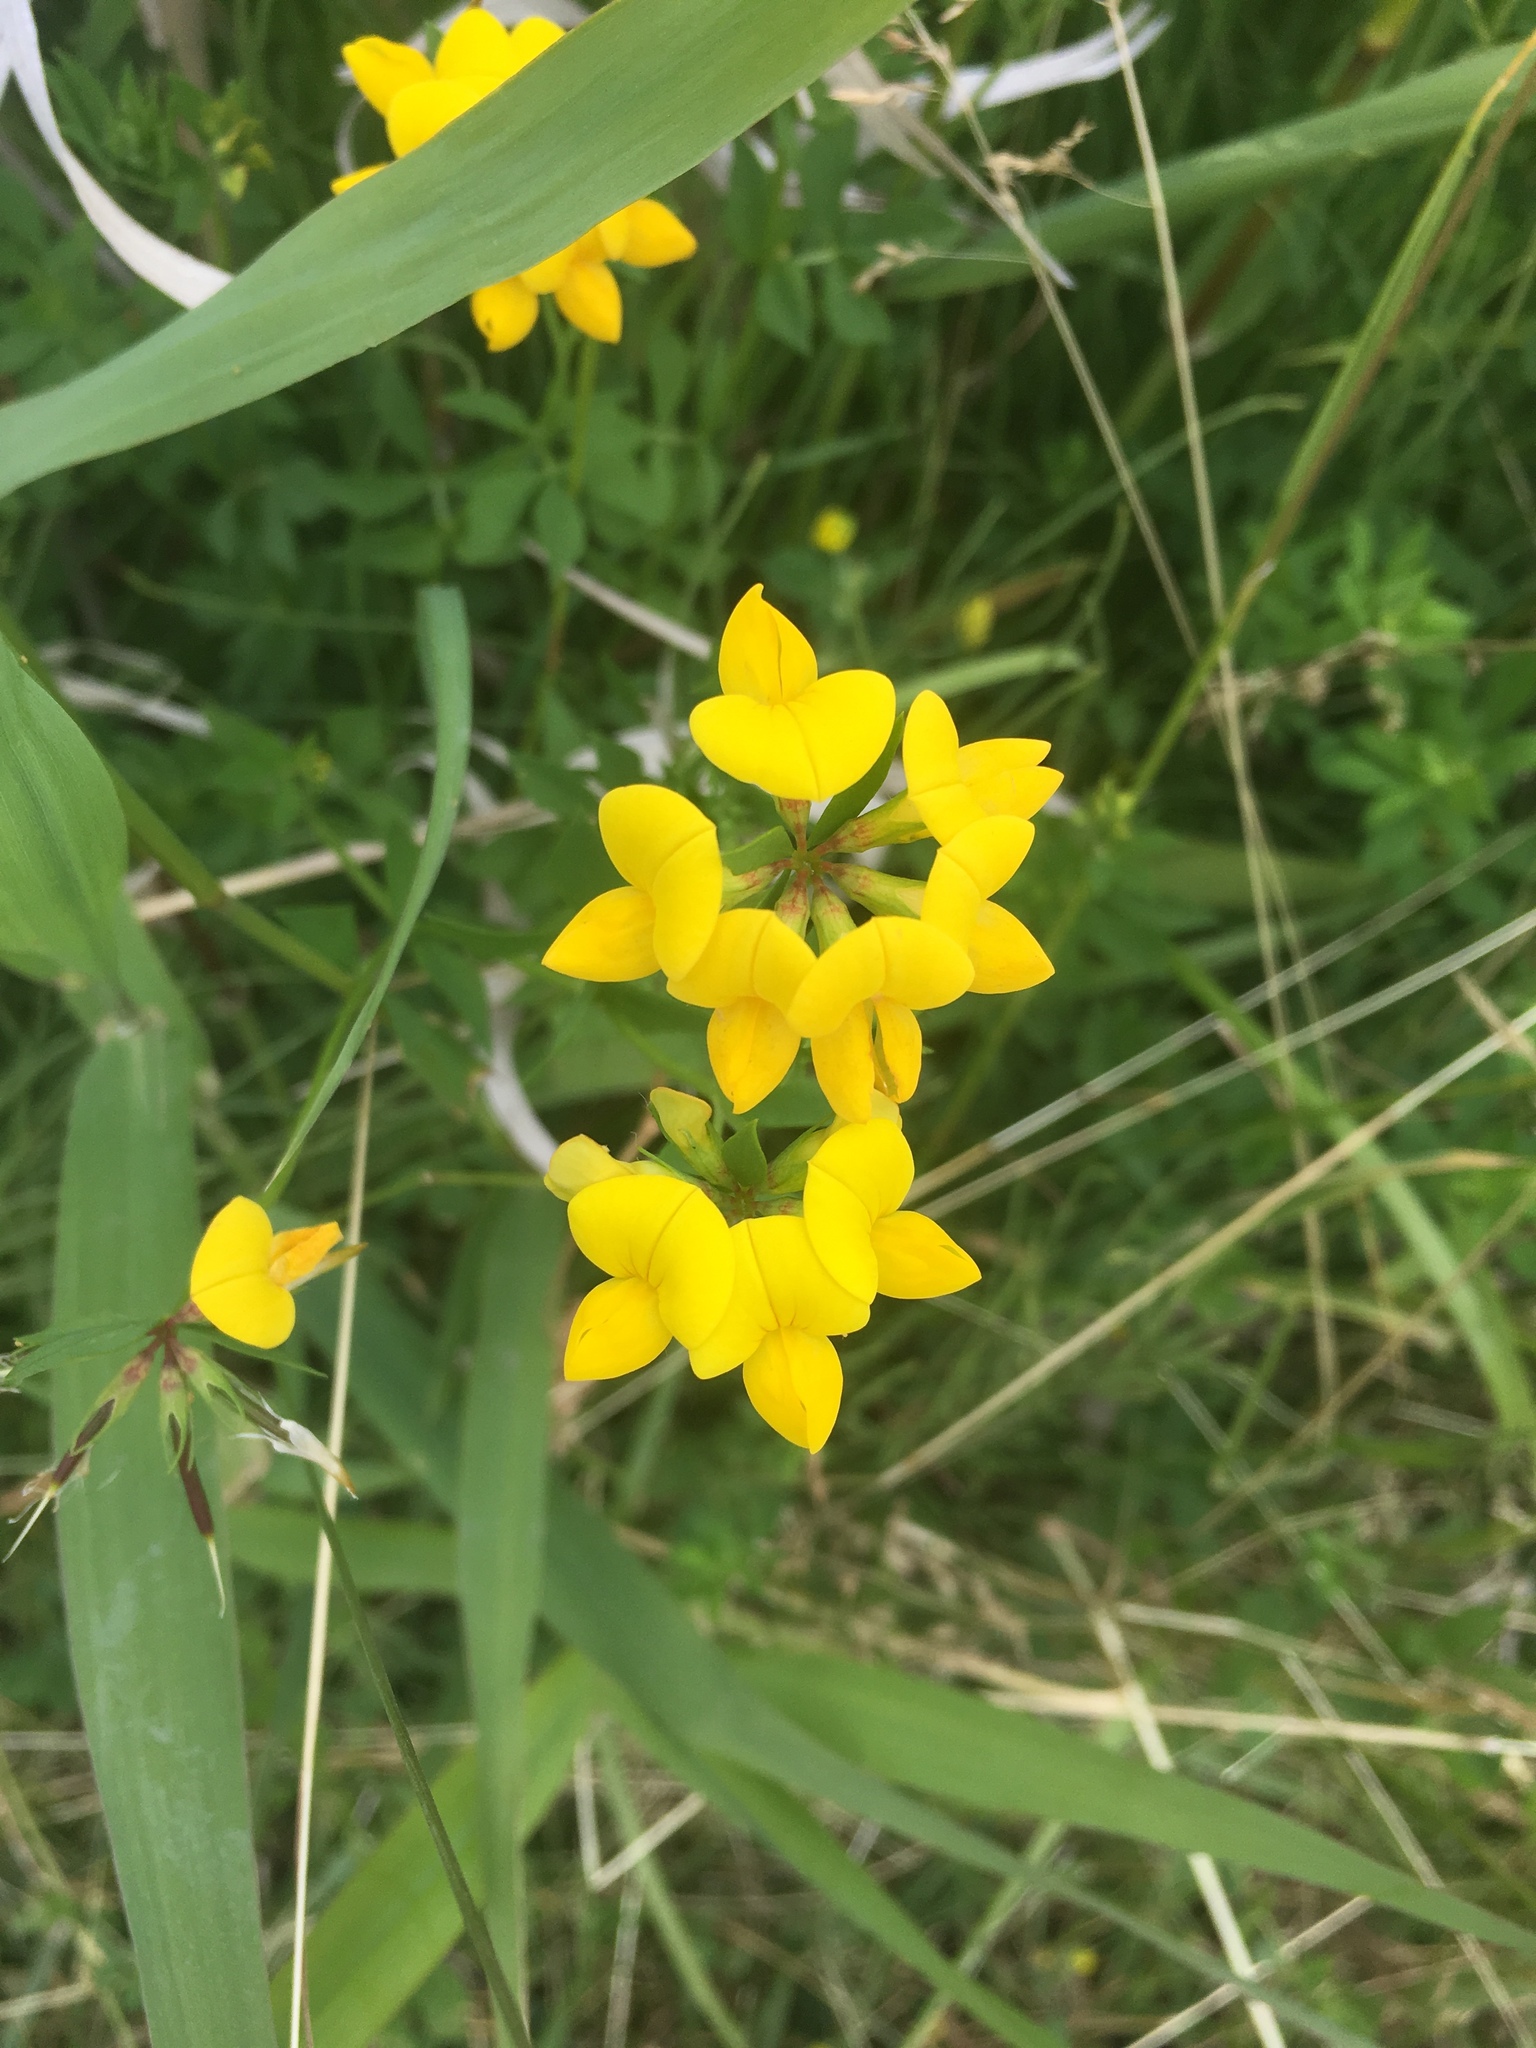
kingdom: Plantae
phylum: Tracheophyta
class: Magnoliopsida
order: Fabales
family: Fabaceae
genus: Lotus
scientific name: Lotus corniculatus
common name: Common bird's-foot-trefoil
